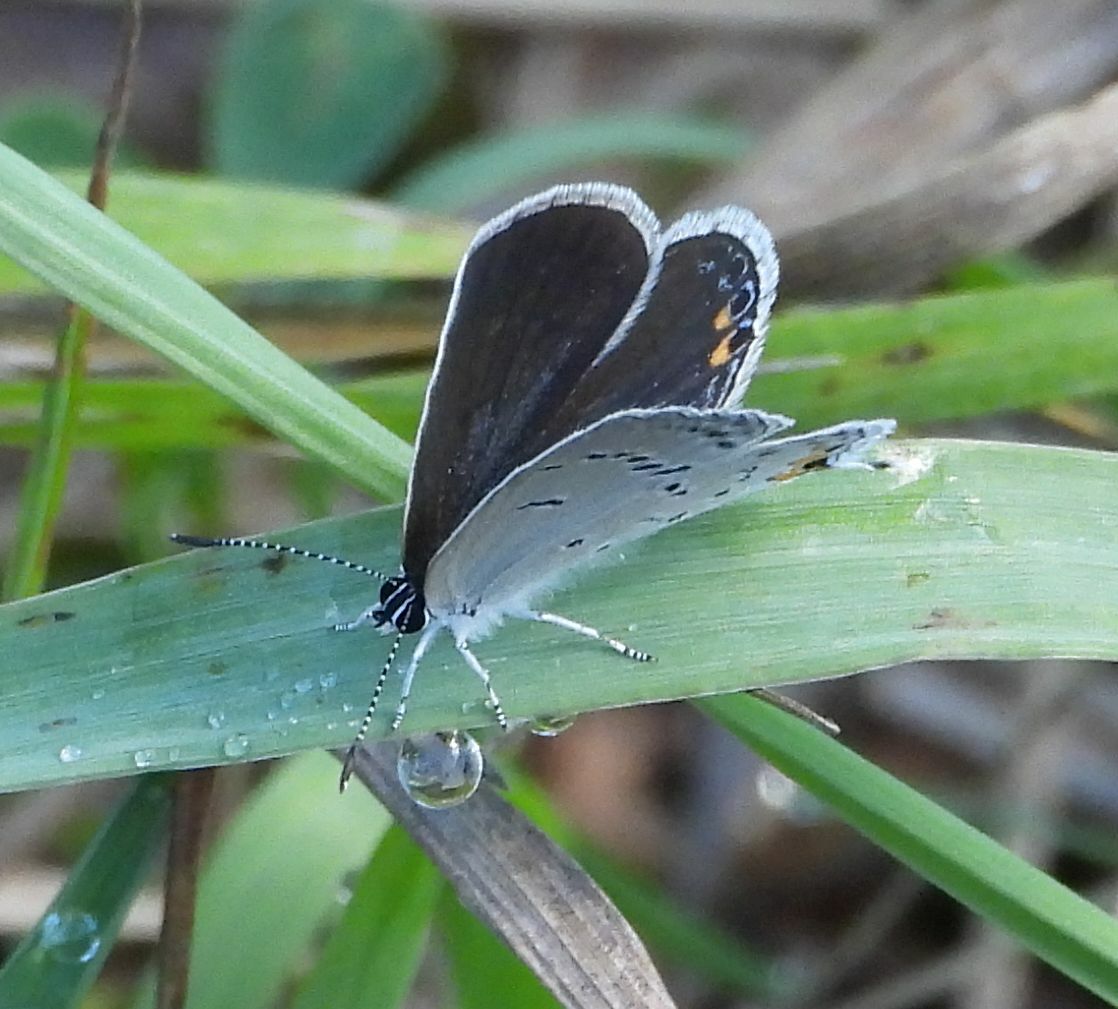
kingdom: Animalia
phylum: Arthropoda
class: Insecta
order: Lepidoptera
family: Lycaenidae
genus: Elkalyce
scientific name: Elkalyce comyntas
